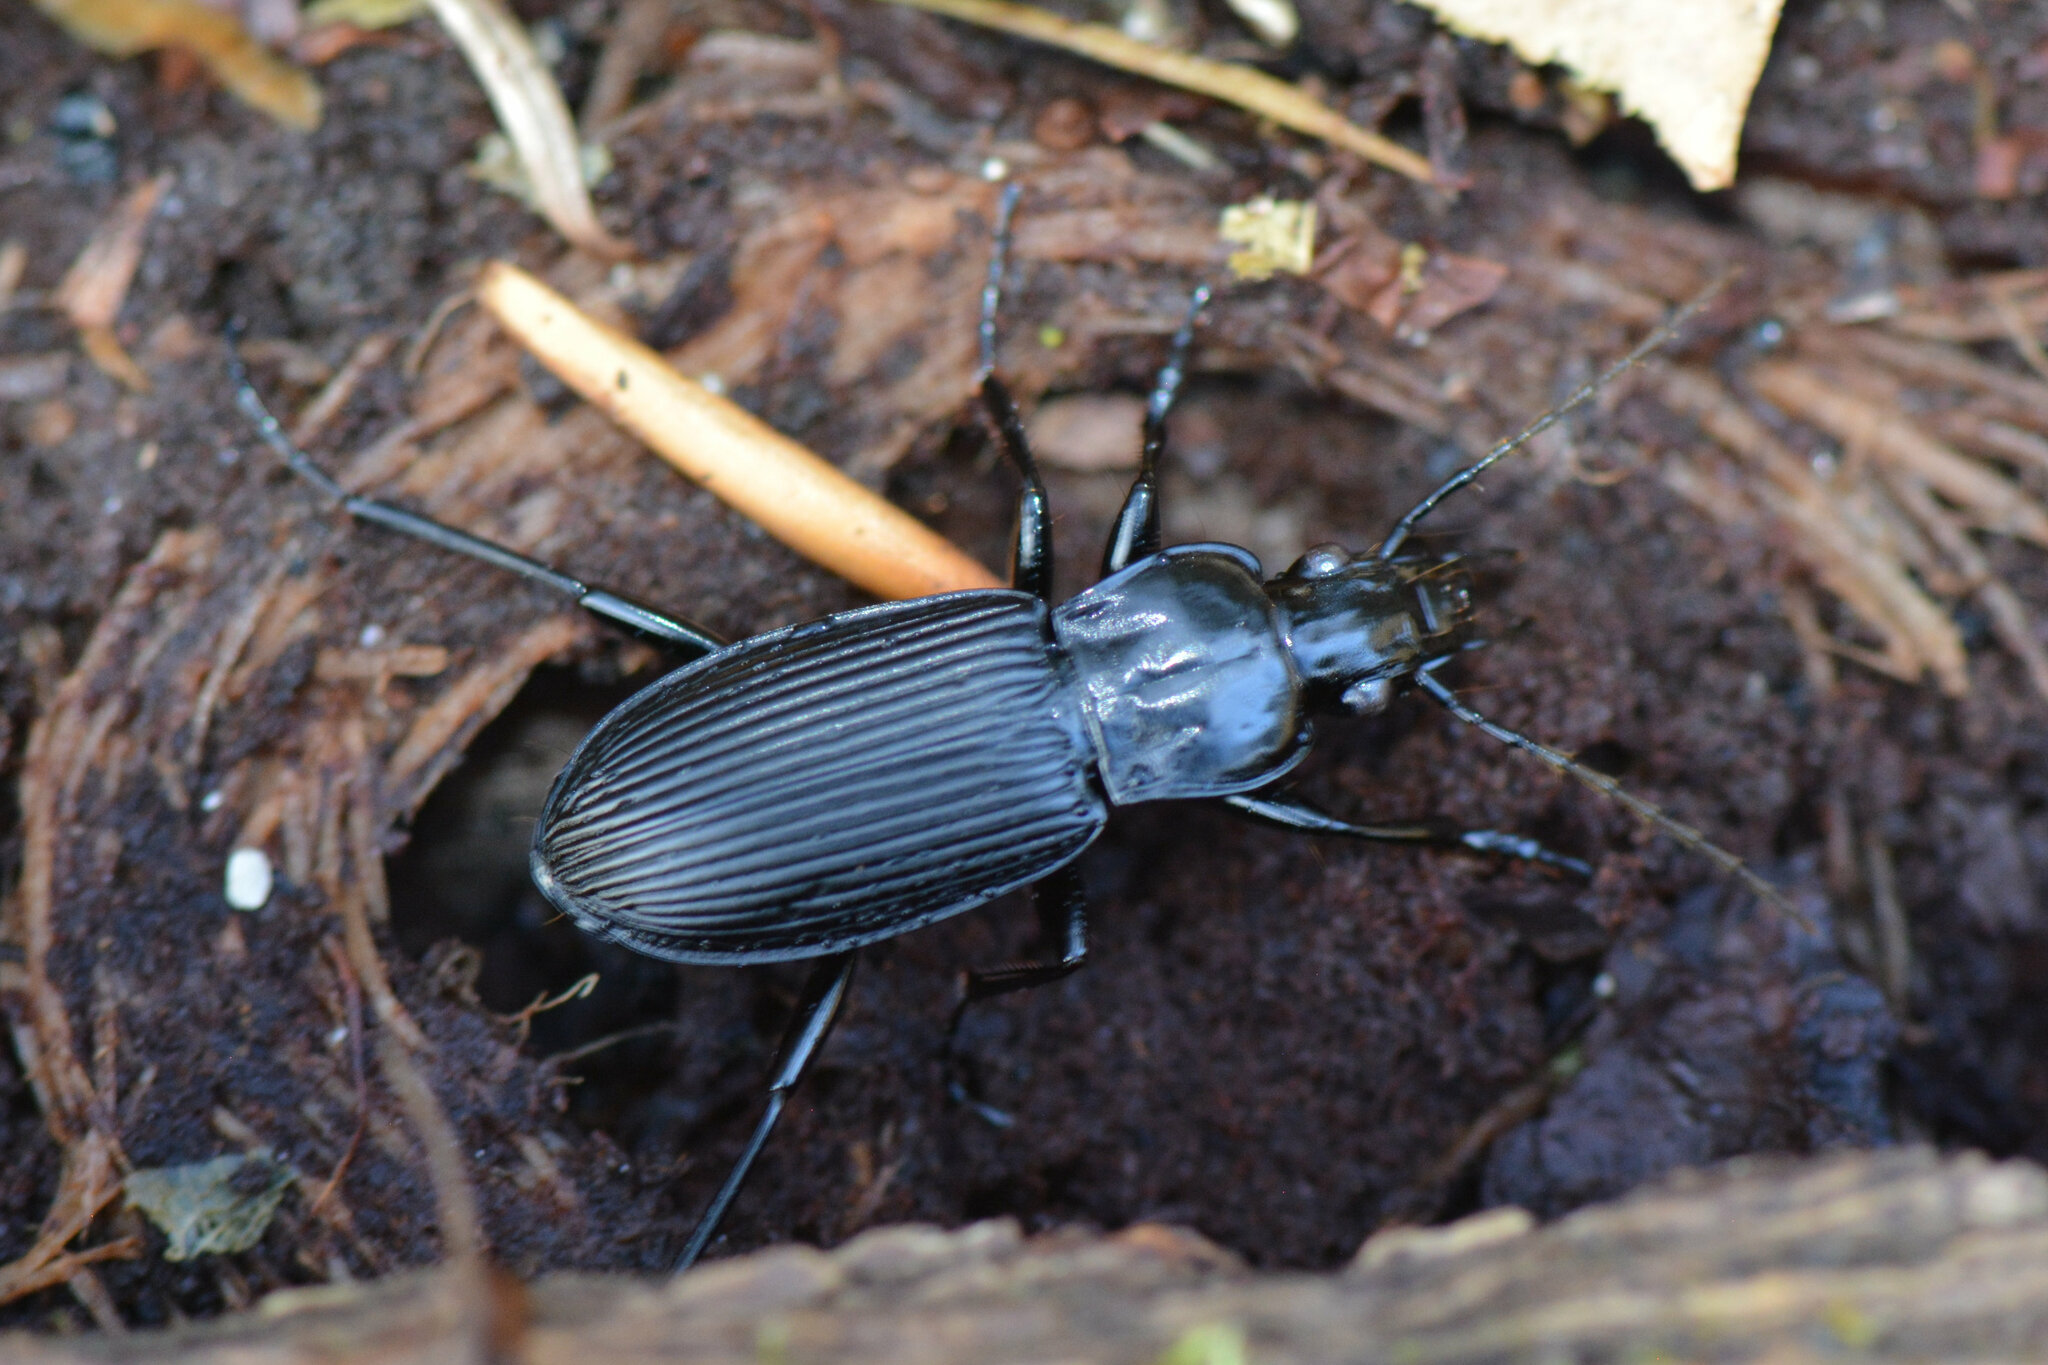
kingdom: Animalia
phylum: Arthropoda
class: Insecta
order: Coleoptera
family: Carabidae
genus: Pterostichus
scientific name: Pterostichus niger
